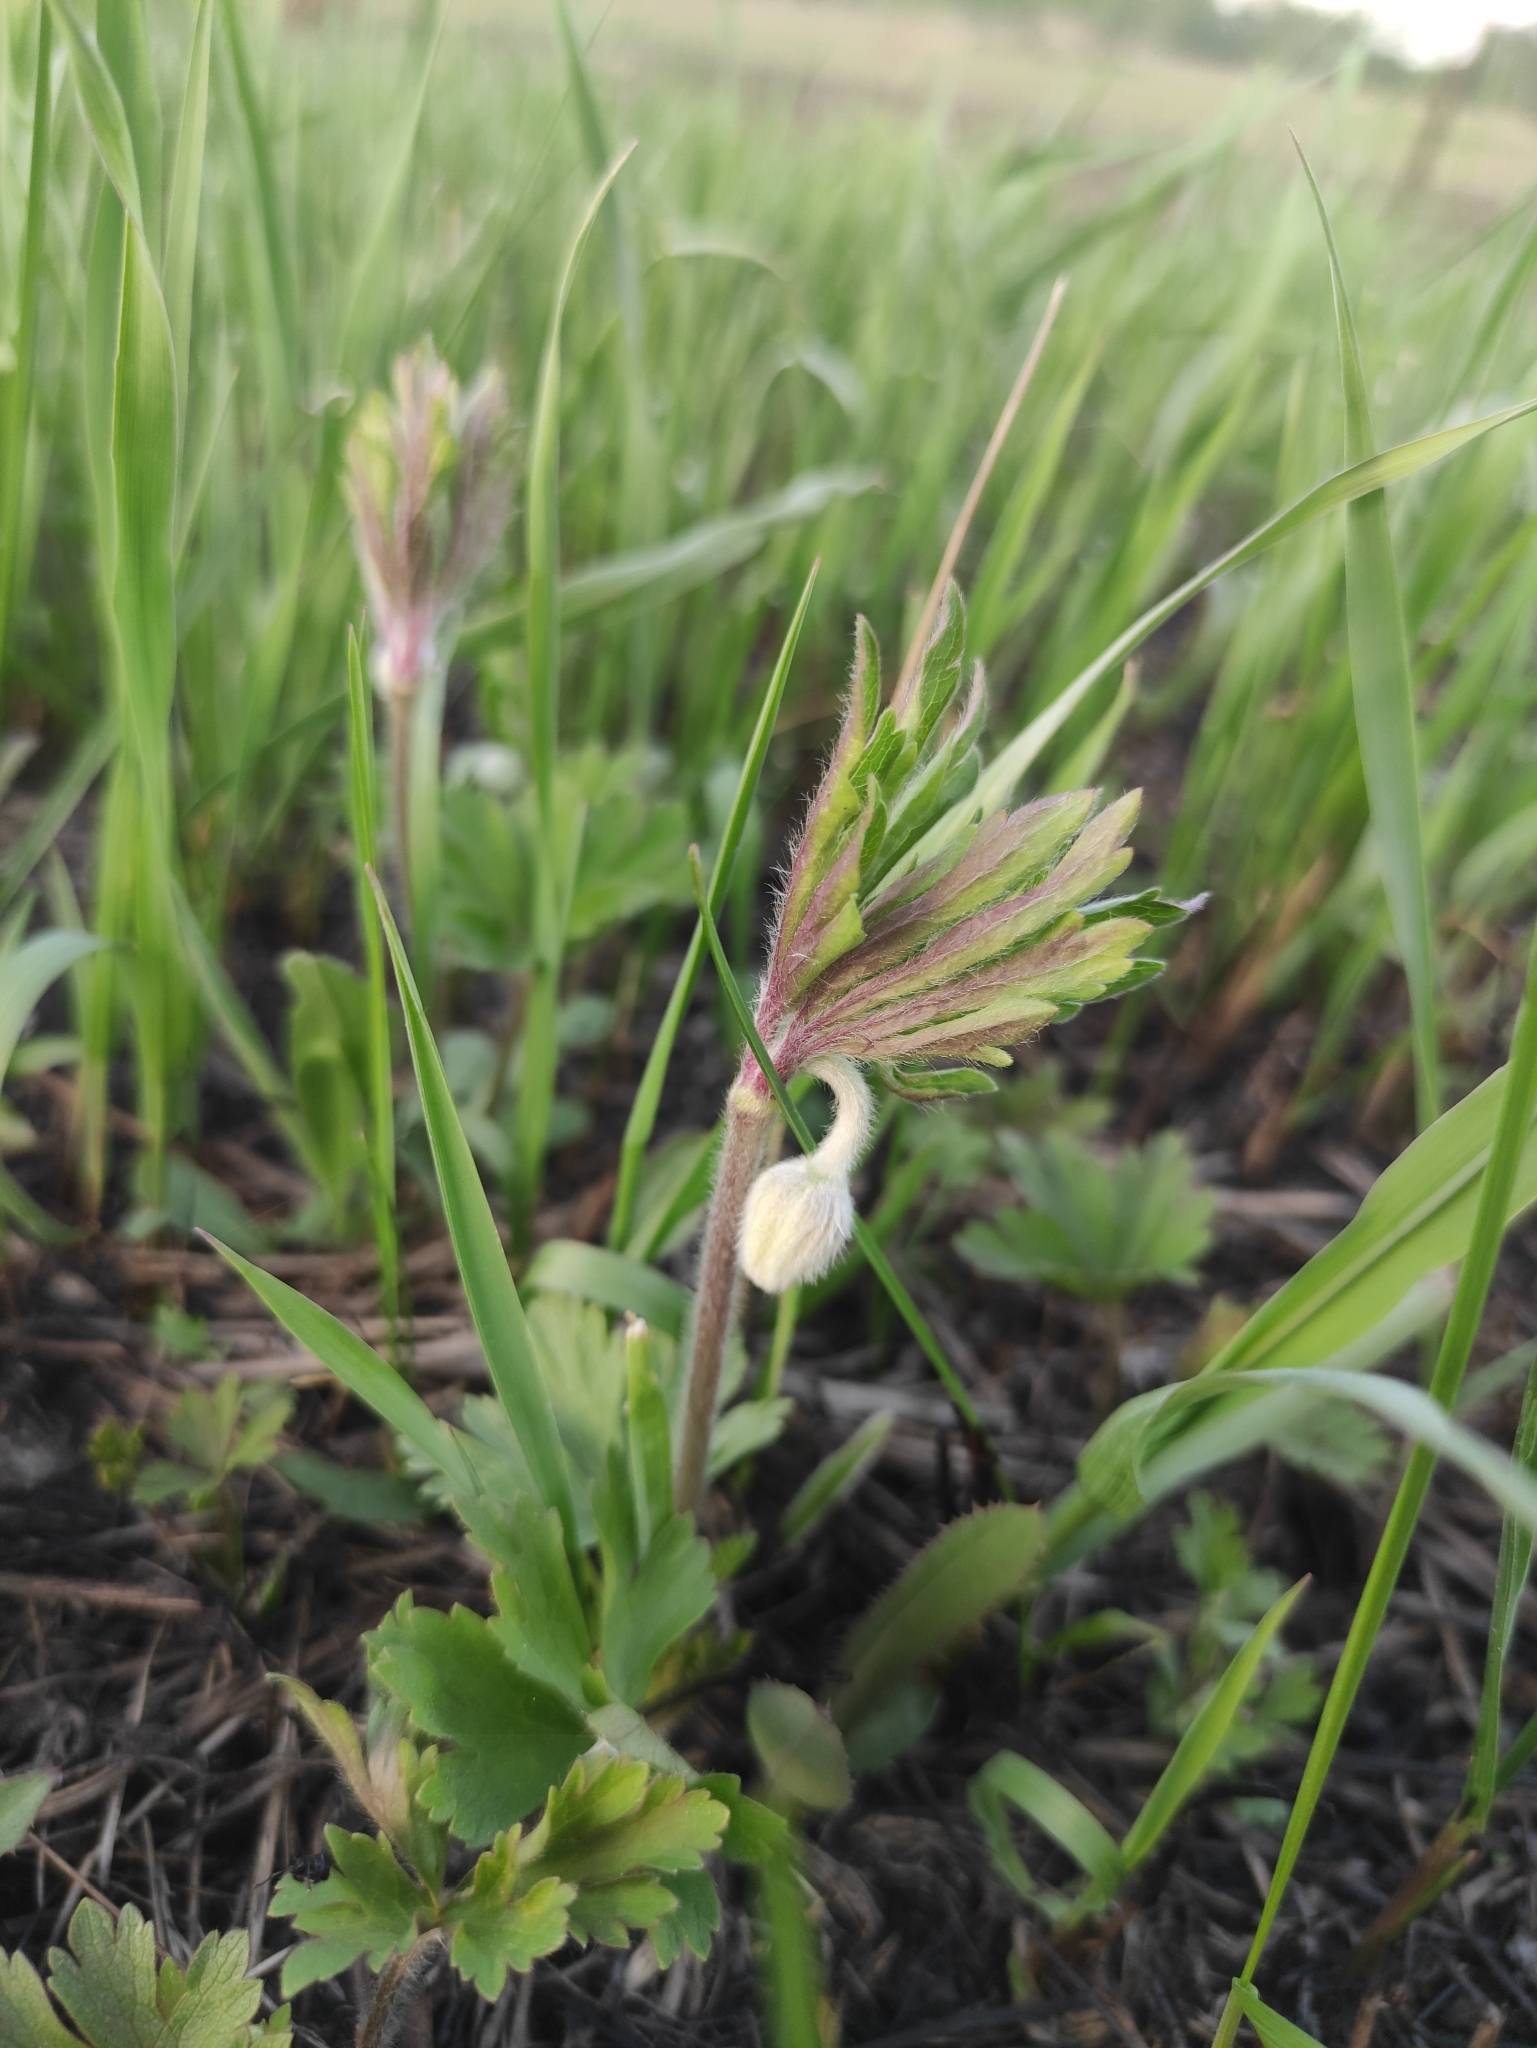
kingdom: Plantae
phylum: Tracheophyta
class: Magnoliopsida
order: Ranunculales
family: Ranunculaceae
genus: Anemone
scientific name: Anemone sylvestris
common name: Snowdrop anemone
